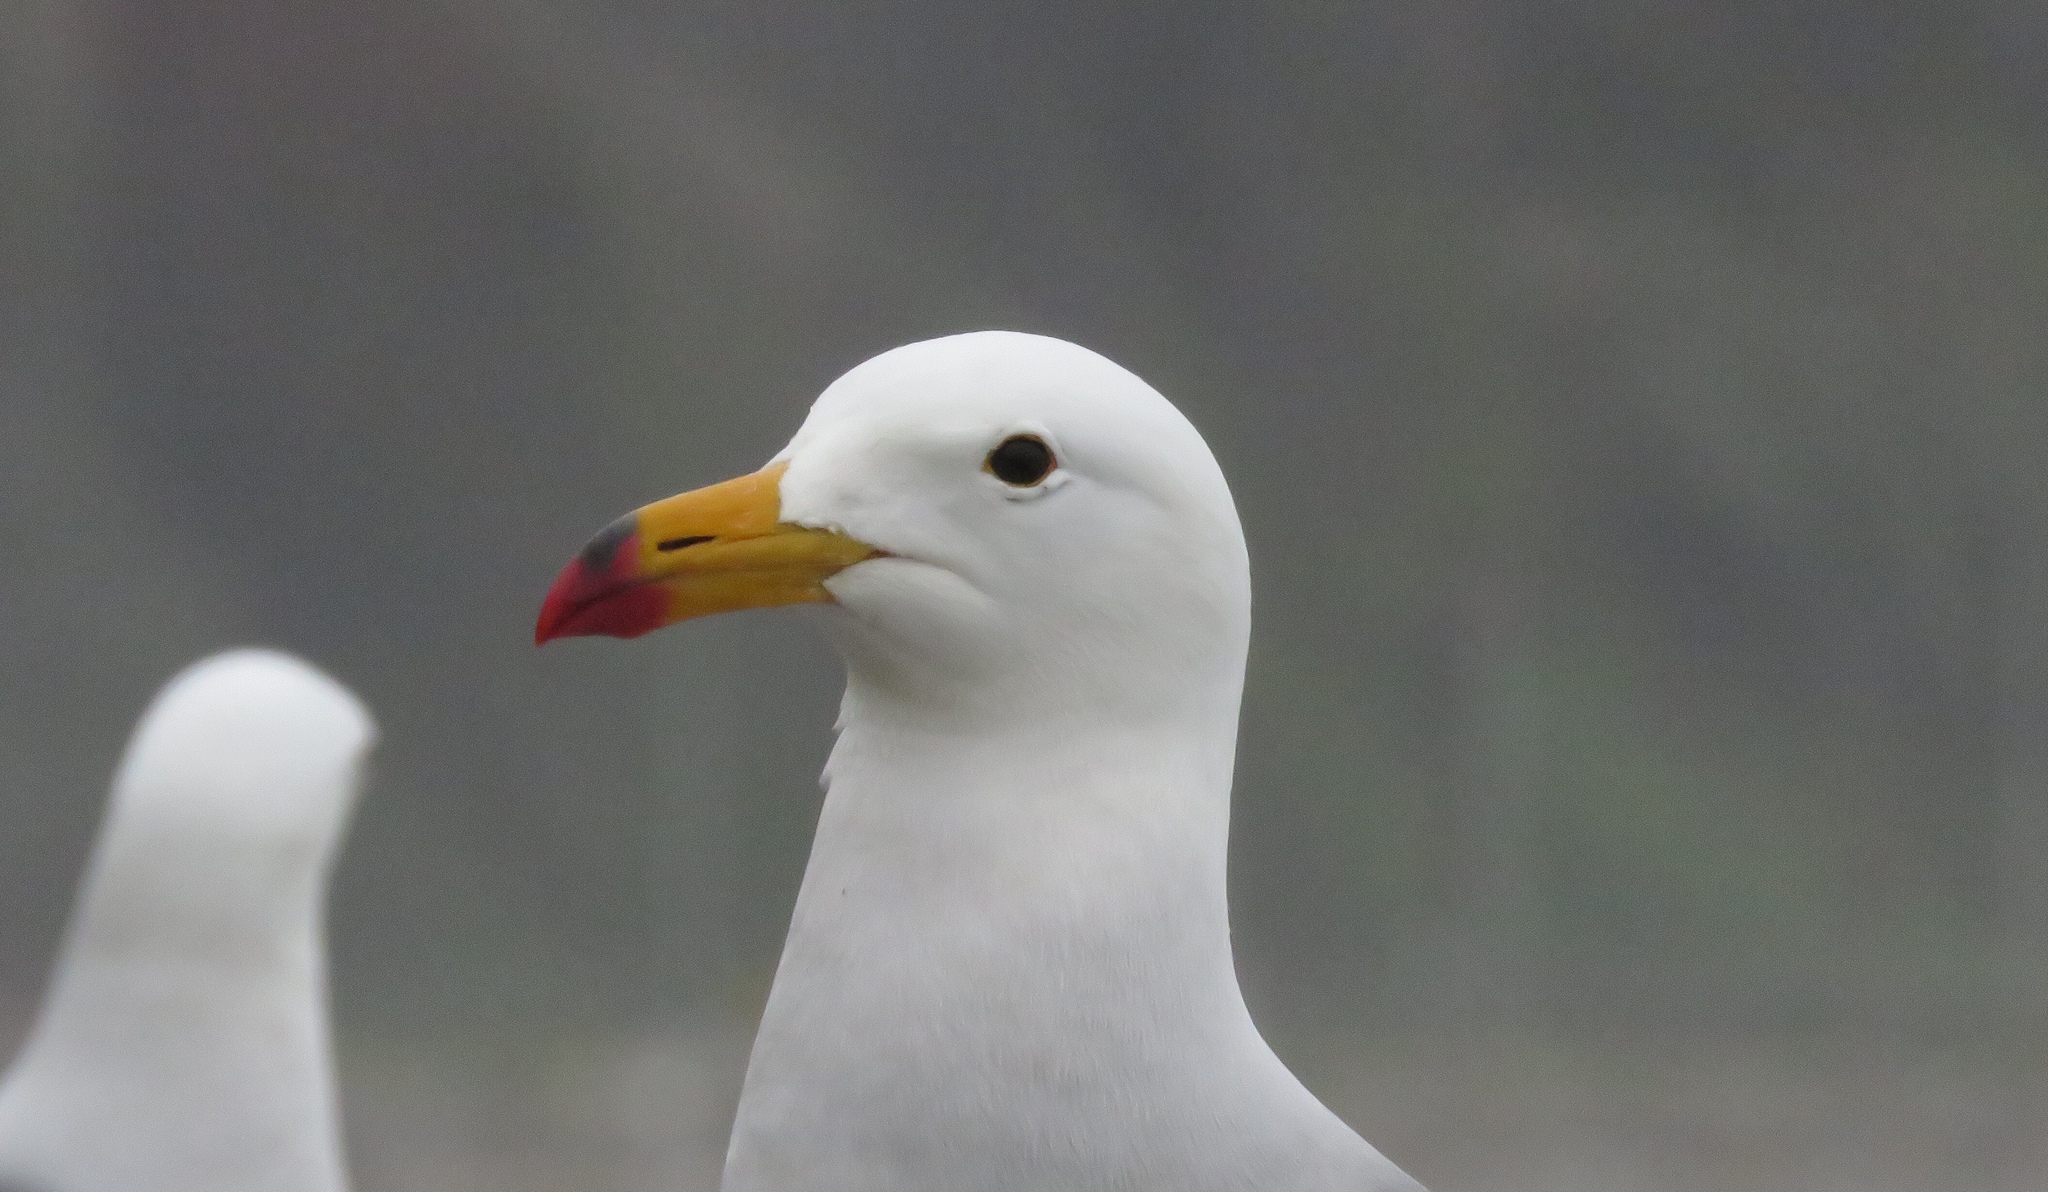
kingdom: Animalia
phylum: Chordata
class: Aves
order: Charadriiformes
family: Laridae
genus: Larus
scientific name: Larus belcheri
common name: Belcher's gull
